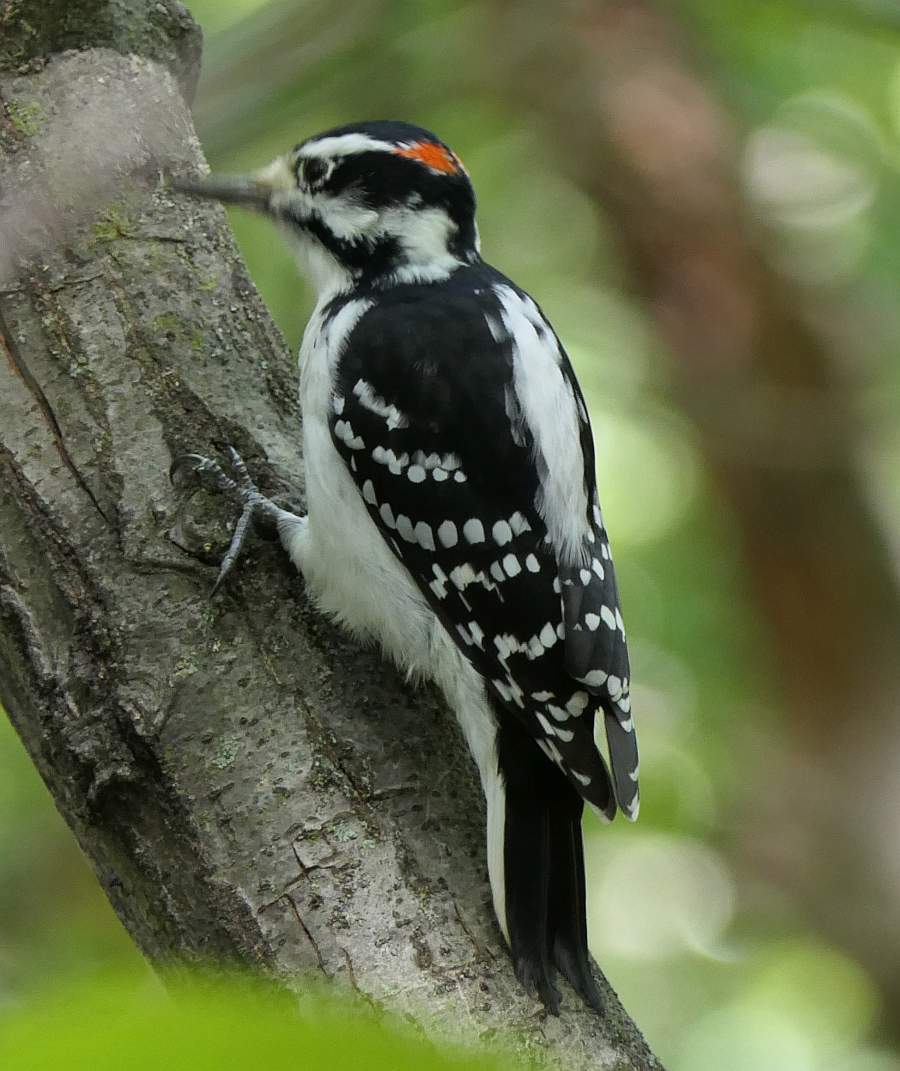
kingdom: Animalia
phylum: Chordata
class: Aves
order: Piciformes
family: Picidae
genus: Leuconotopicus
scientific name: Leuconotopicus villosus
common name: Hairy woodpecker
